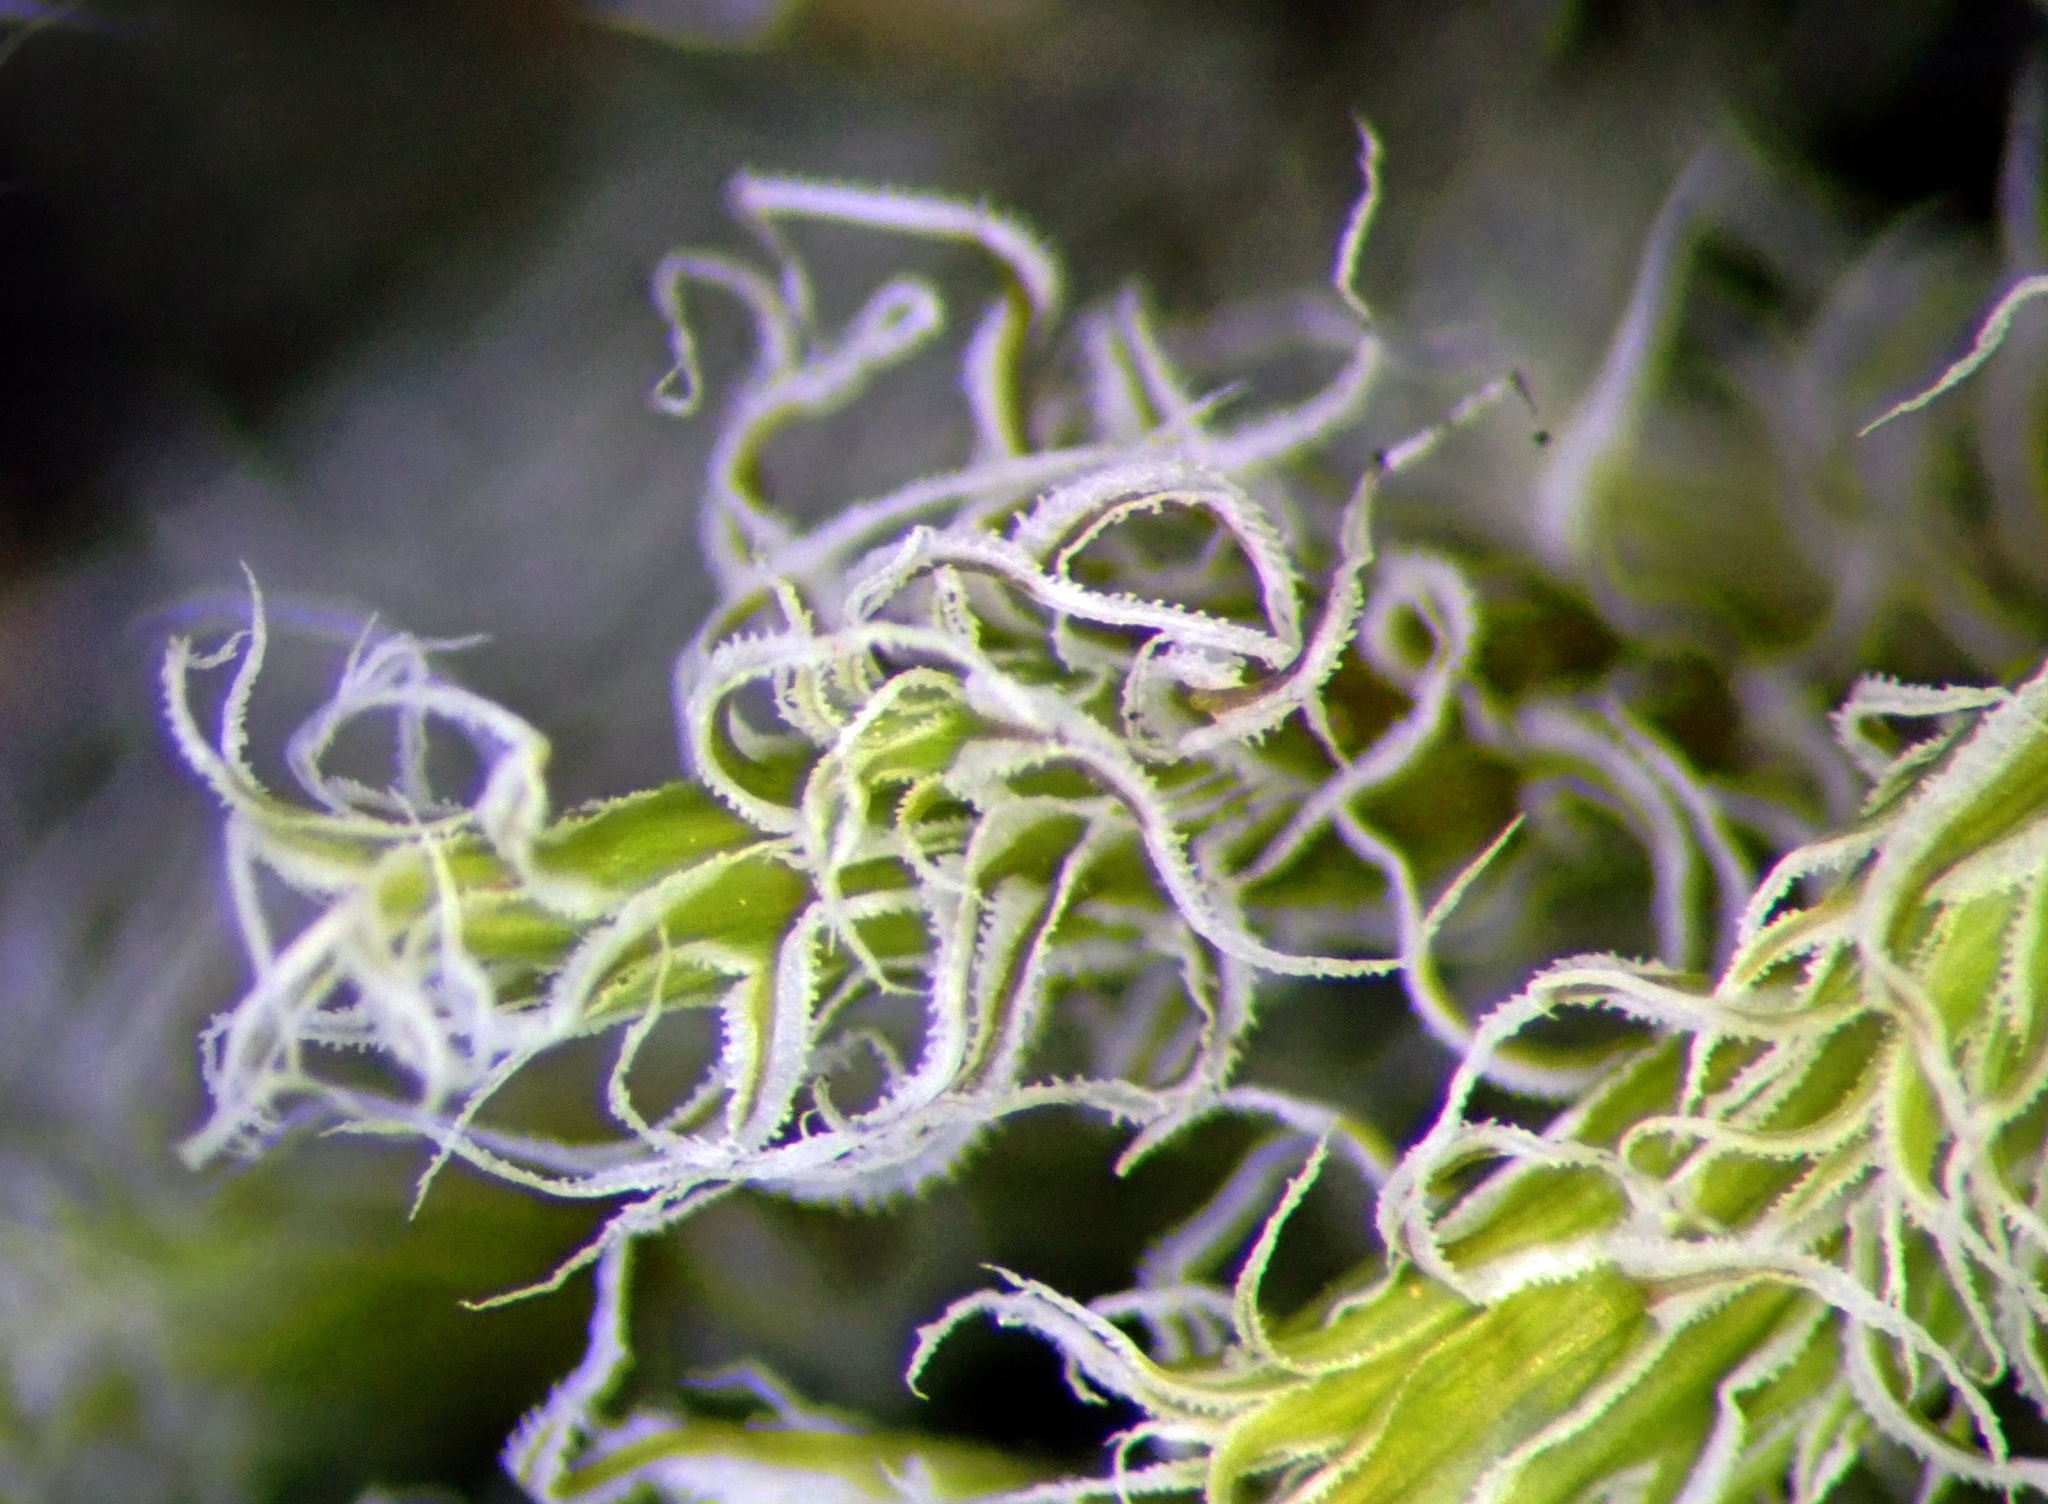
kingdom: Plantae
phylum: Bryophyta
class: Bryopsida
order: Grimmiales
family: Grimmiaceae
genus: Racomitrium
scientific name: Racomitrium lanuginosum
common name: Hoary rock moss
